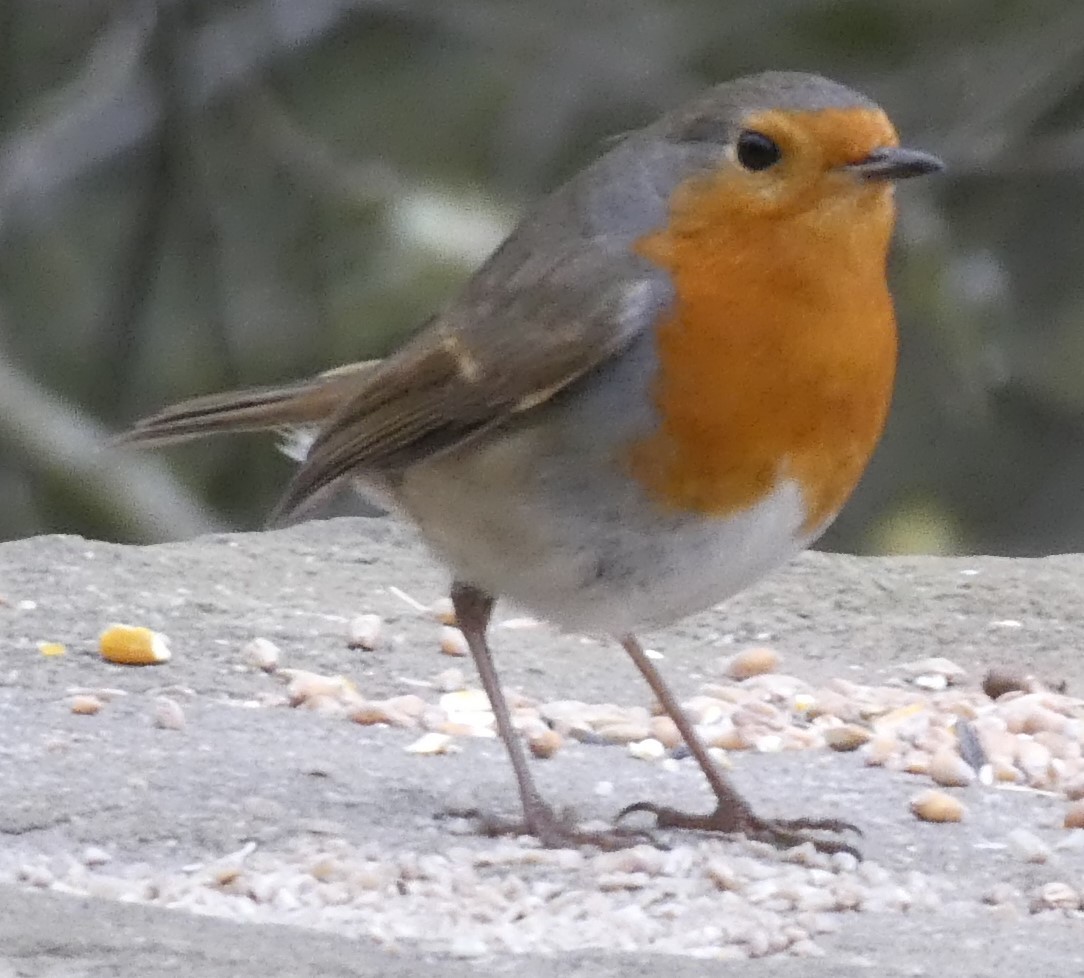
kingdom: Animalia
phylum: Chordata
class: Aves
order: Passeriformes
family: Muscicapidae
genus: Erithacus
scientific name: Erithacus rubecula
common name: European robin
